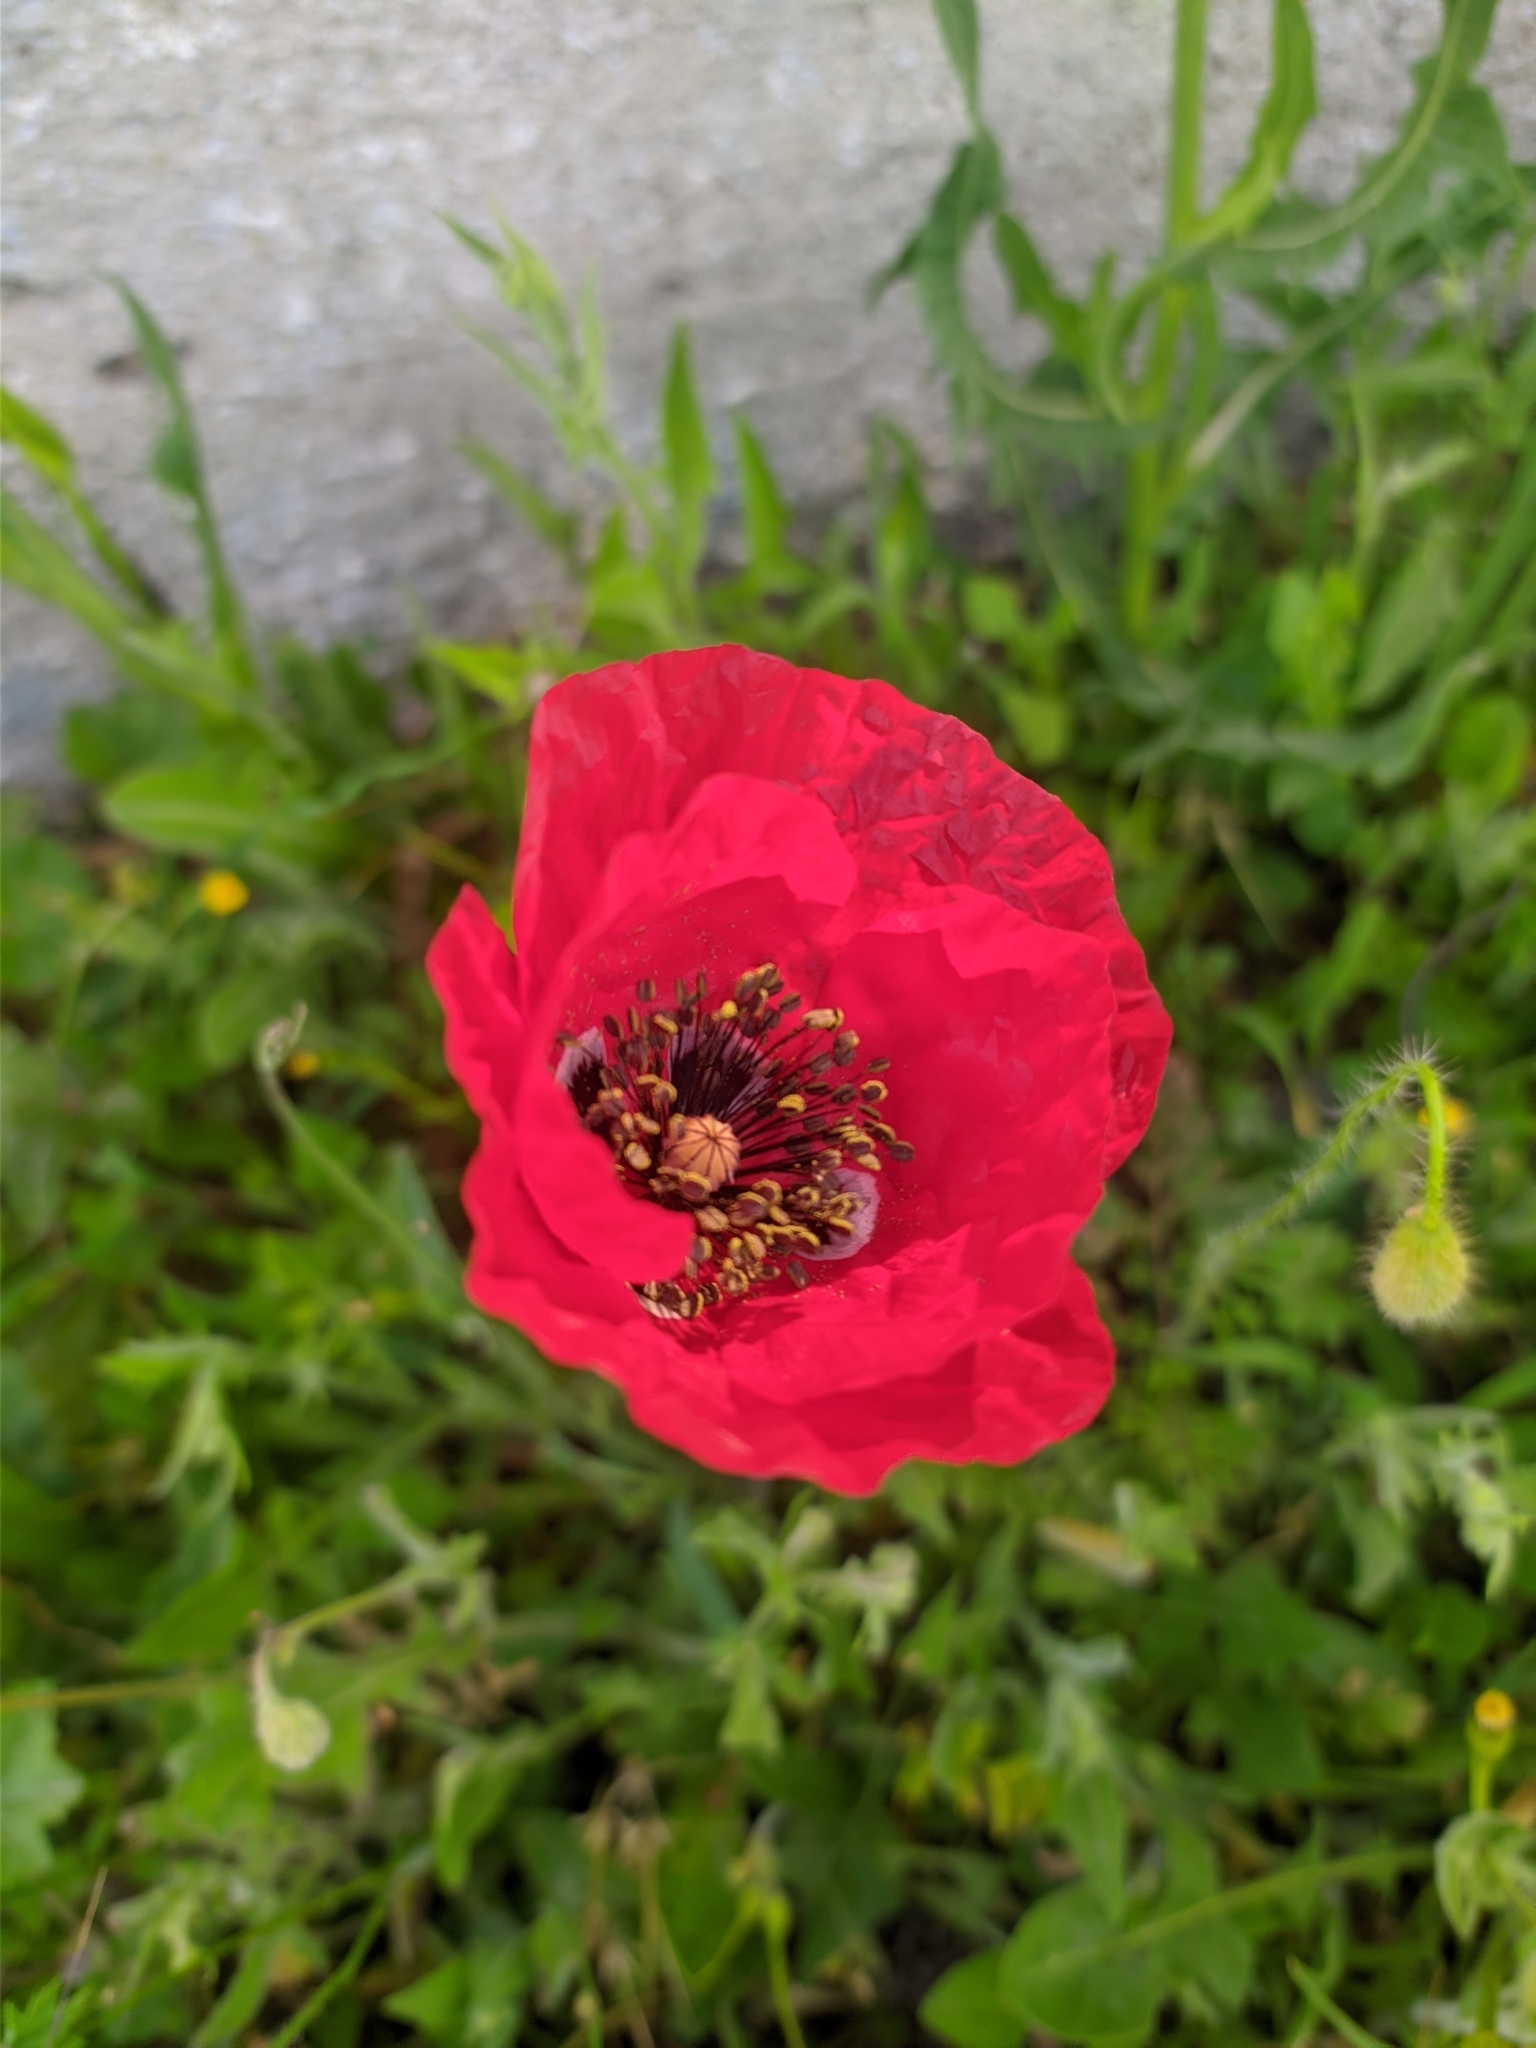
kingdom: Plantae
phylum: Tracheophyta
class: Magnoliopsida
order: Ranunculales
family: Papaveraceae
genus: Papaver
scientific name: Papaver rhoeas
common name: Corn poppy
